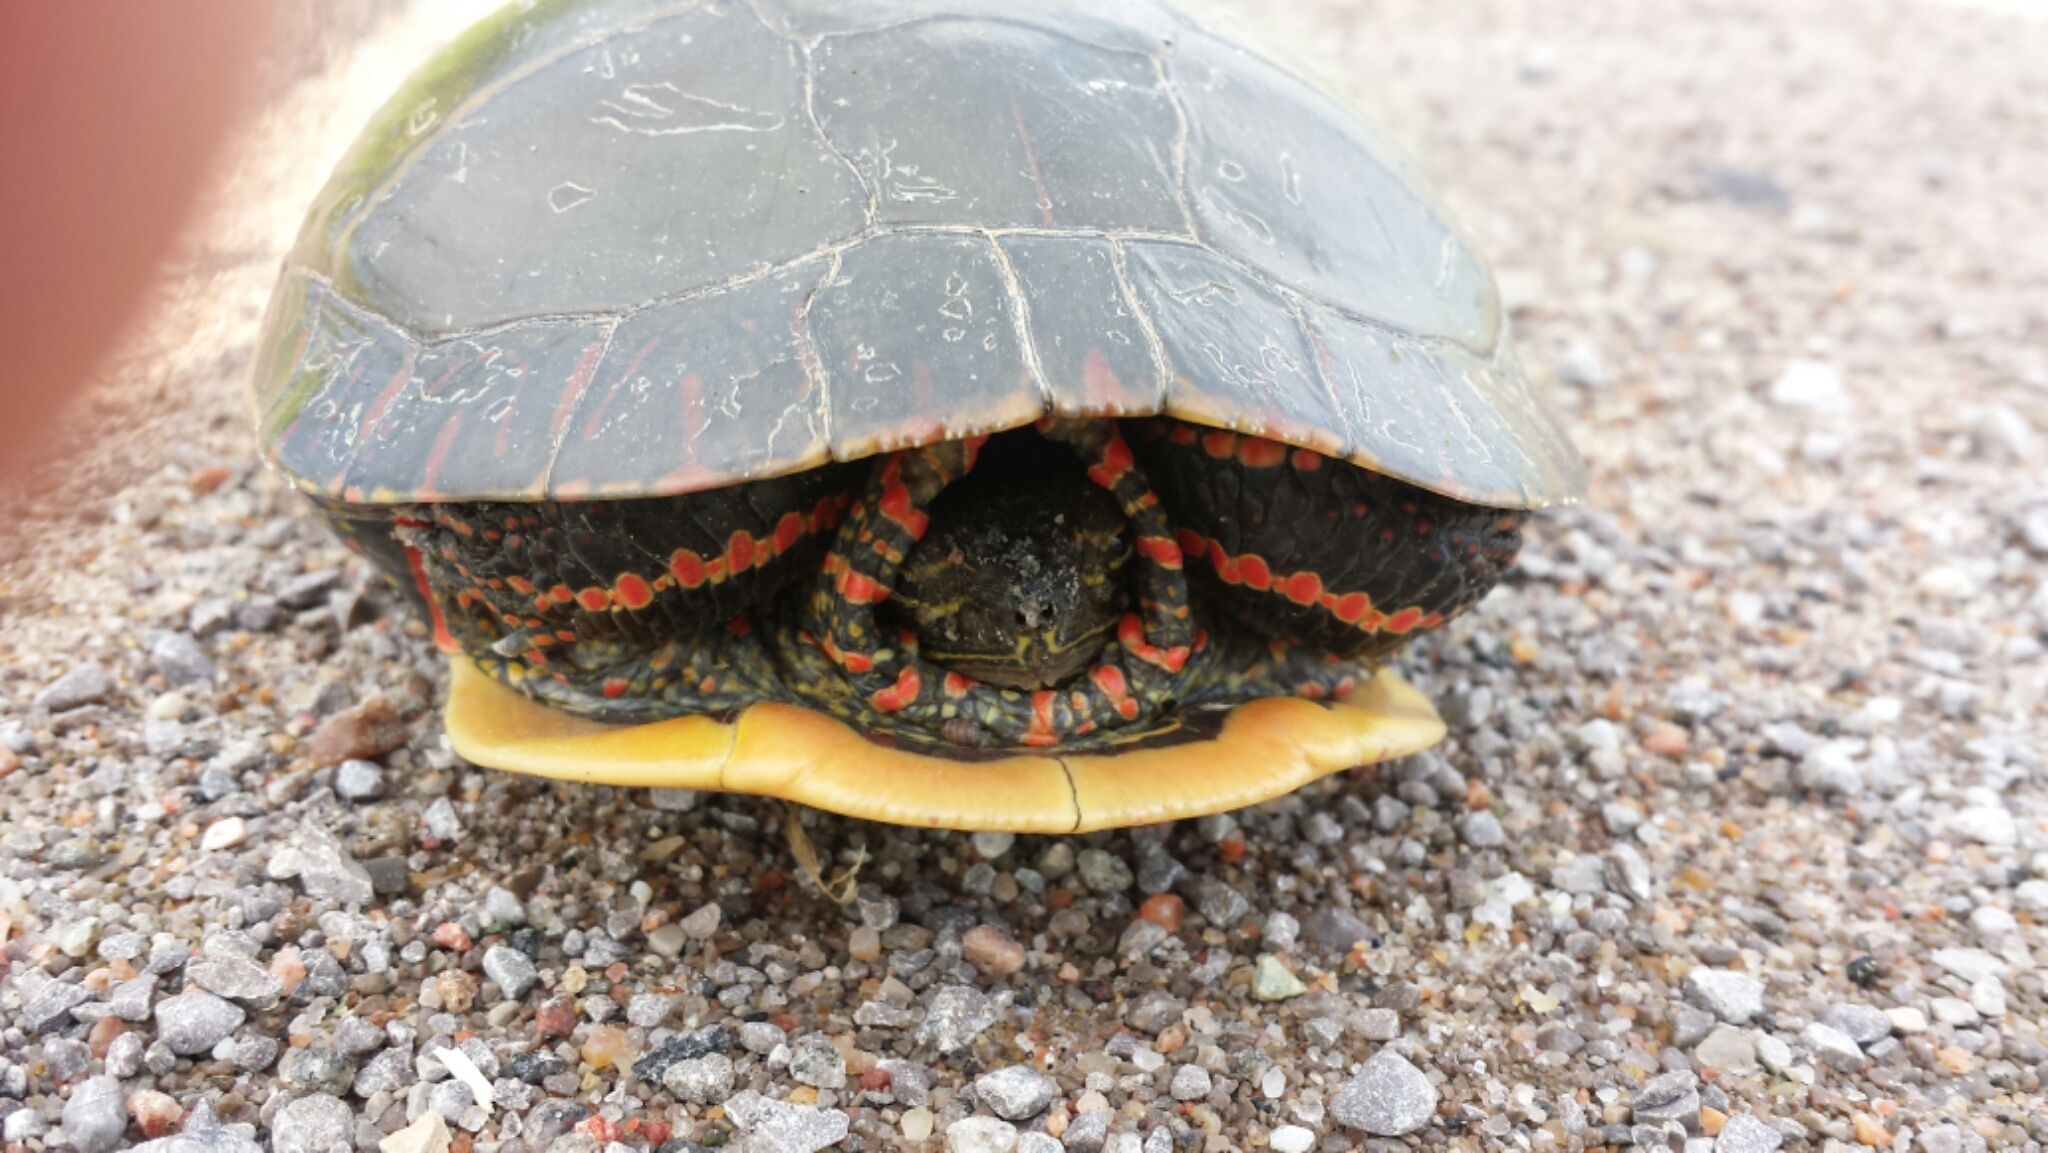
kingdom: Animalia
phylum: Chordata
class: Testudines
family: Emydidae
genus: Chrysemys
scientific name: Chrysemys picta
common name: Painted turtle
